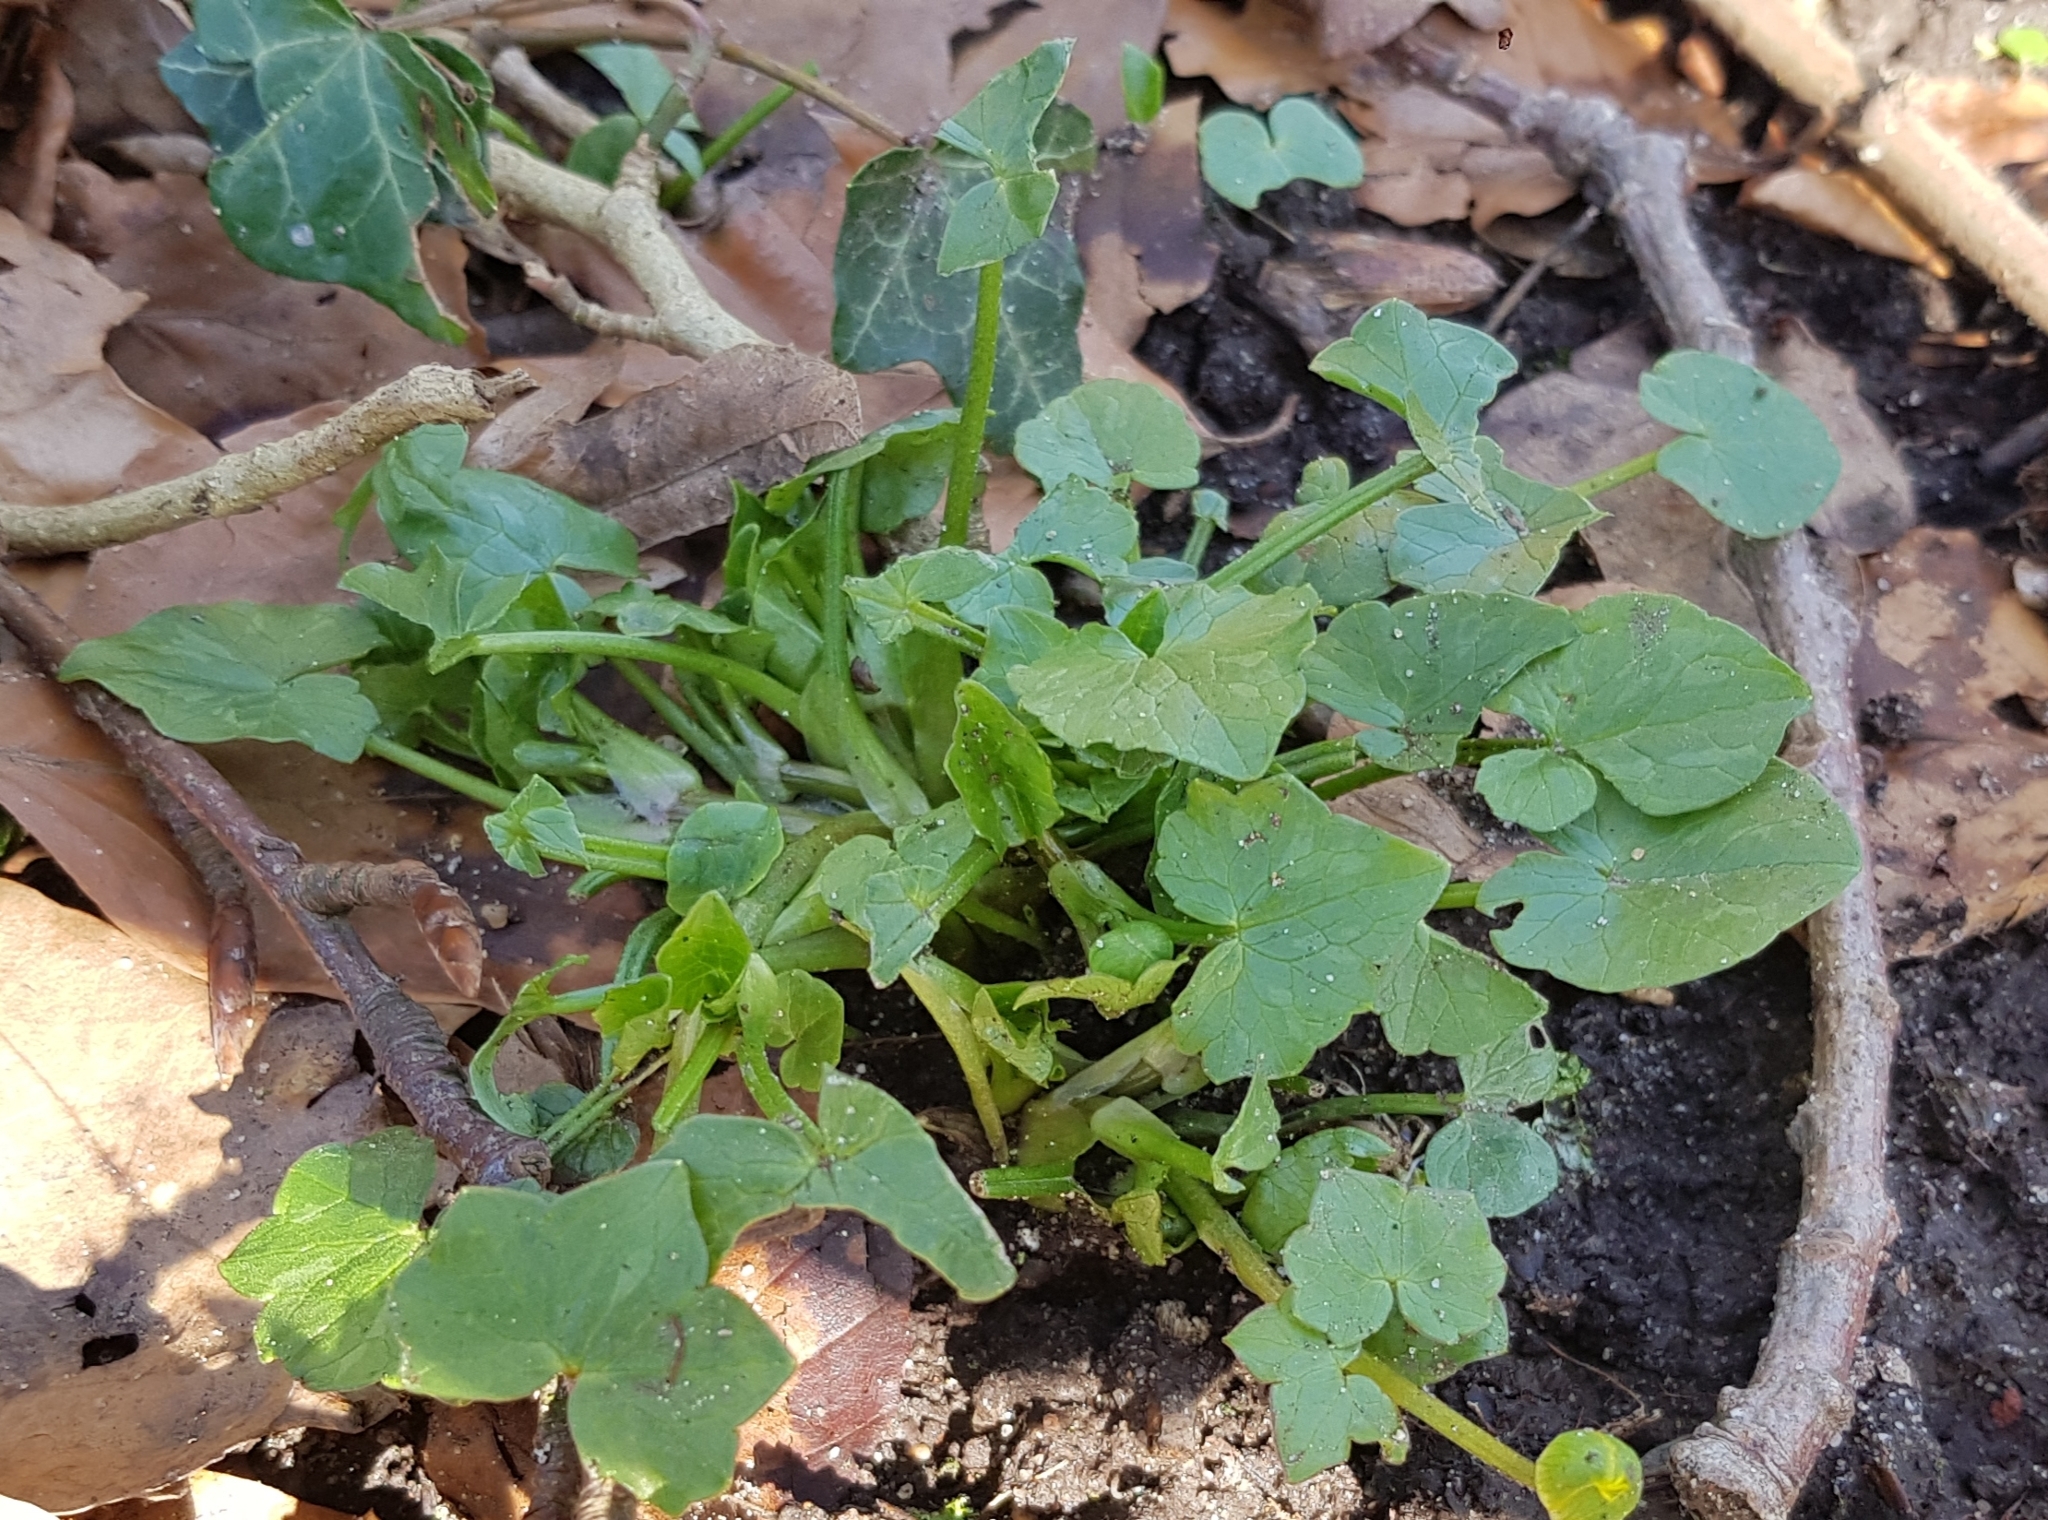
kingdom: Plantae
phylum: Tracheophyta
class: Magnoliopsida
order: Ranunculales
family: Ranunculaceae
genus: Ficaria
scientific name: Ficaria verna
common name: Lesser celandine
